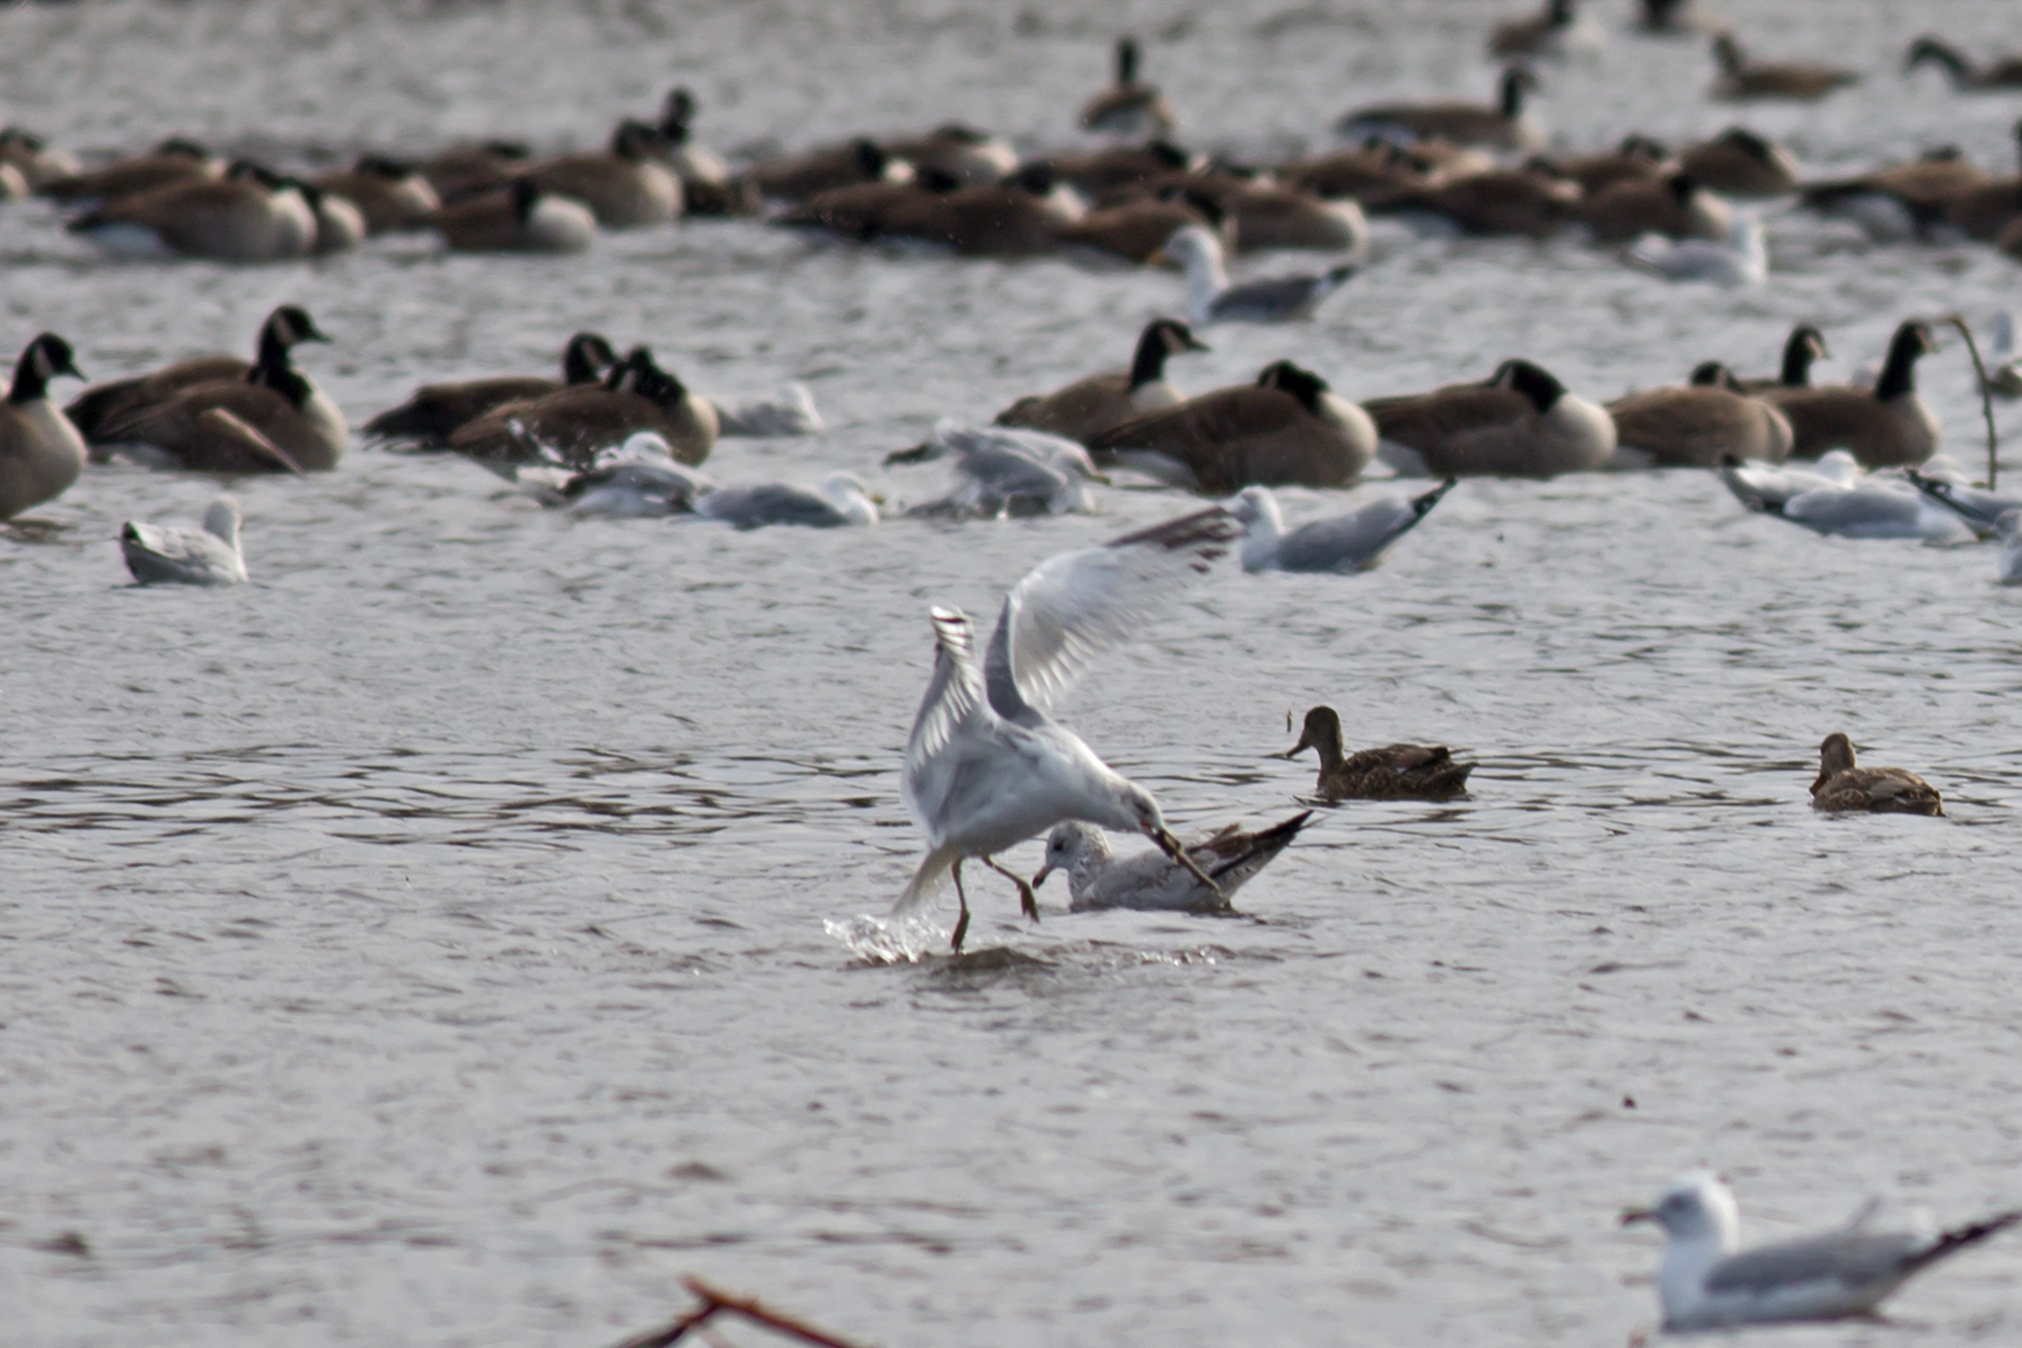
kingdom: Animalia
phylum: Chordata
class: Aves
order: Charadriiformes
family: Laridae
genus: Larus
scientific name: Larus delawarensis
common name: Ring-billed gull
